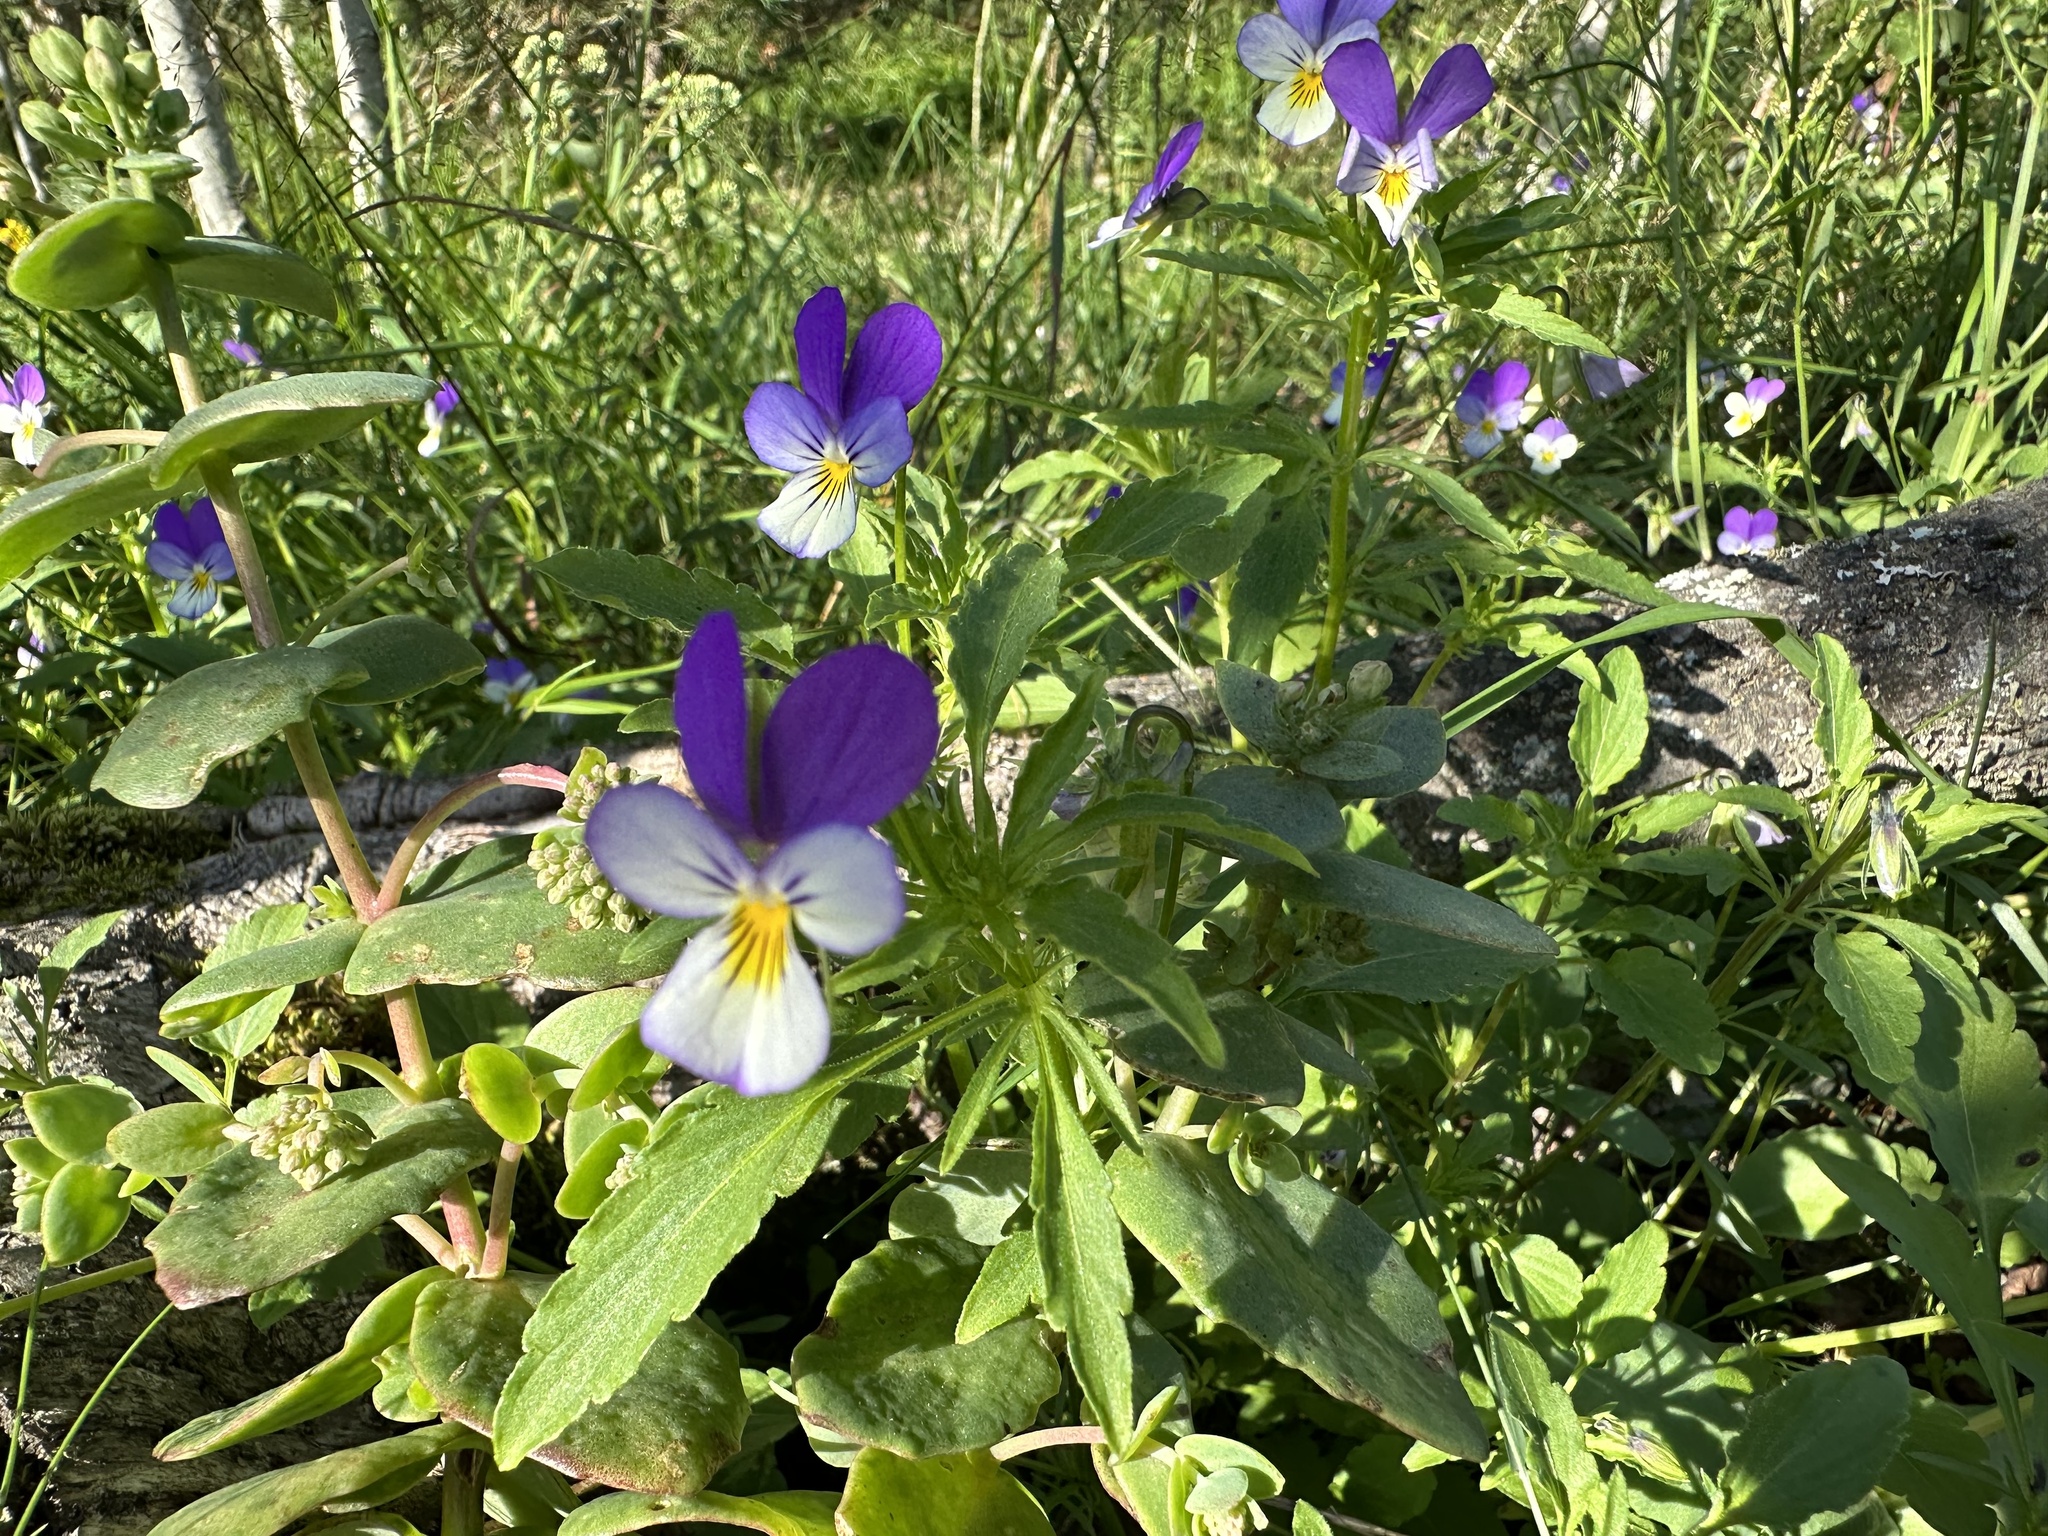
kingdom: Plantae
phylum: Tracheophyta
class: Magnoliopsida
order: Malpighiales
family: Violaceae
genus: Viola
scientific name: Viola tricolor
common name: Pansy
